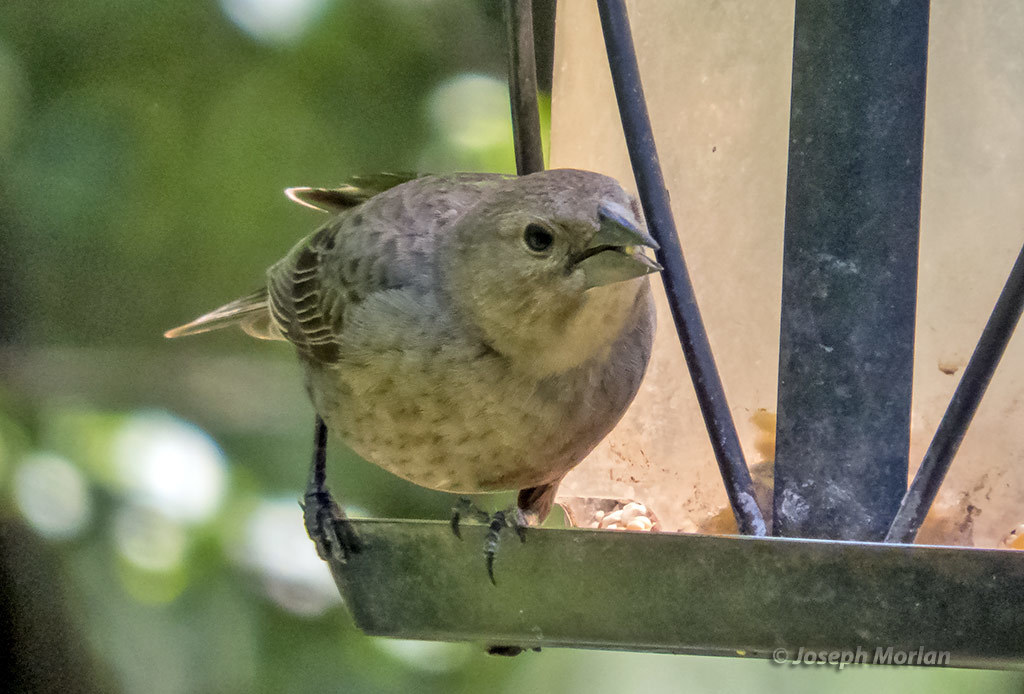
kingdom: Animalia
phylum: Chordata
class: Aves
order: Passeriformes
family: Icteridae
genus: Molothrus
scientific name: Molothrus ater
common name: Brown-headed cowbird
